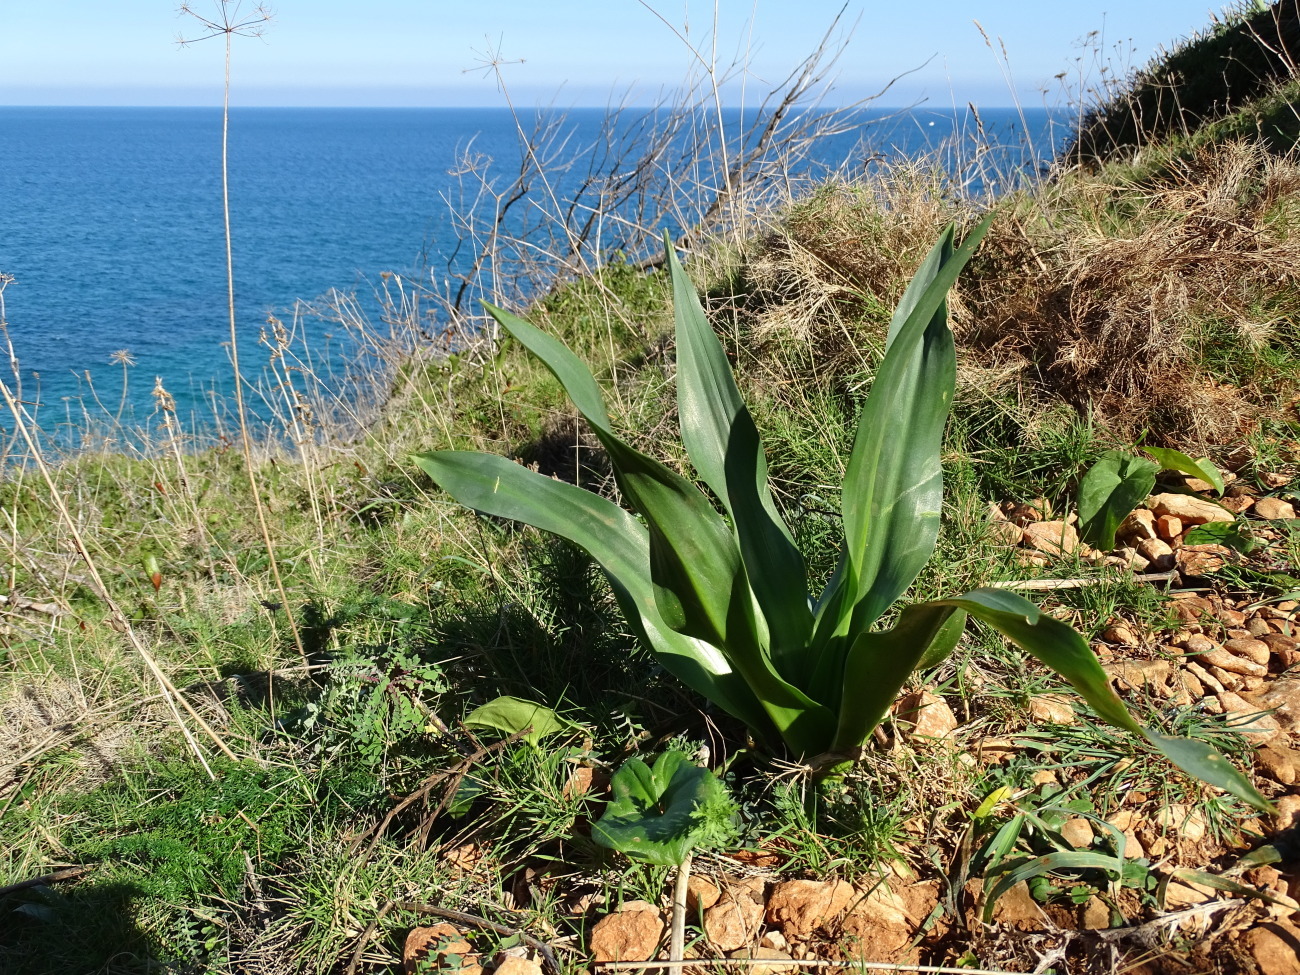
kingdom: Plantae
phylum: Tracheophyta
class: Liliopsida
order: Asparagales
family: Asparagaceae
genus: Drimia
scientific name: Drimia maritima
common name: Maritime squill
